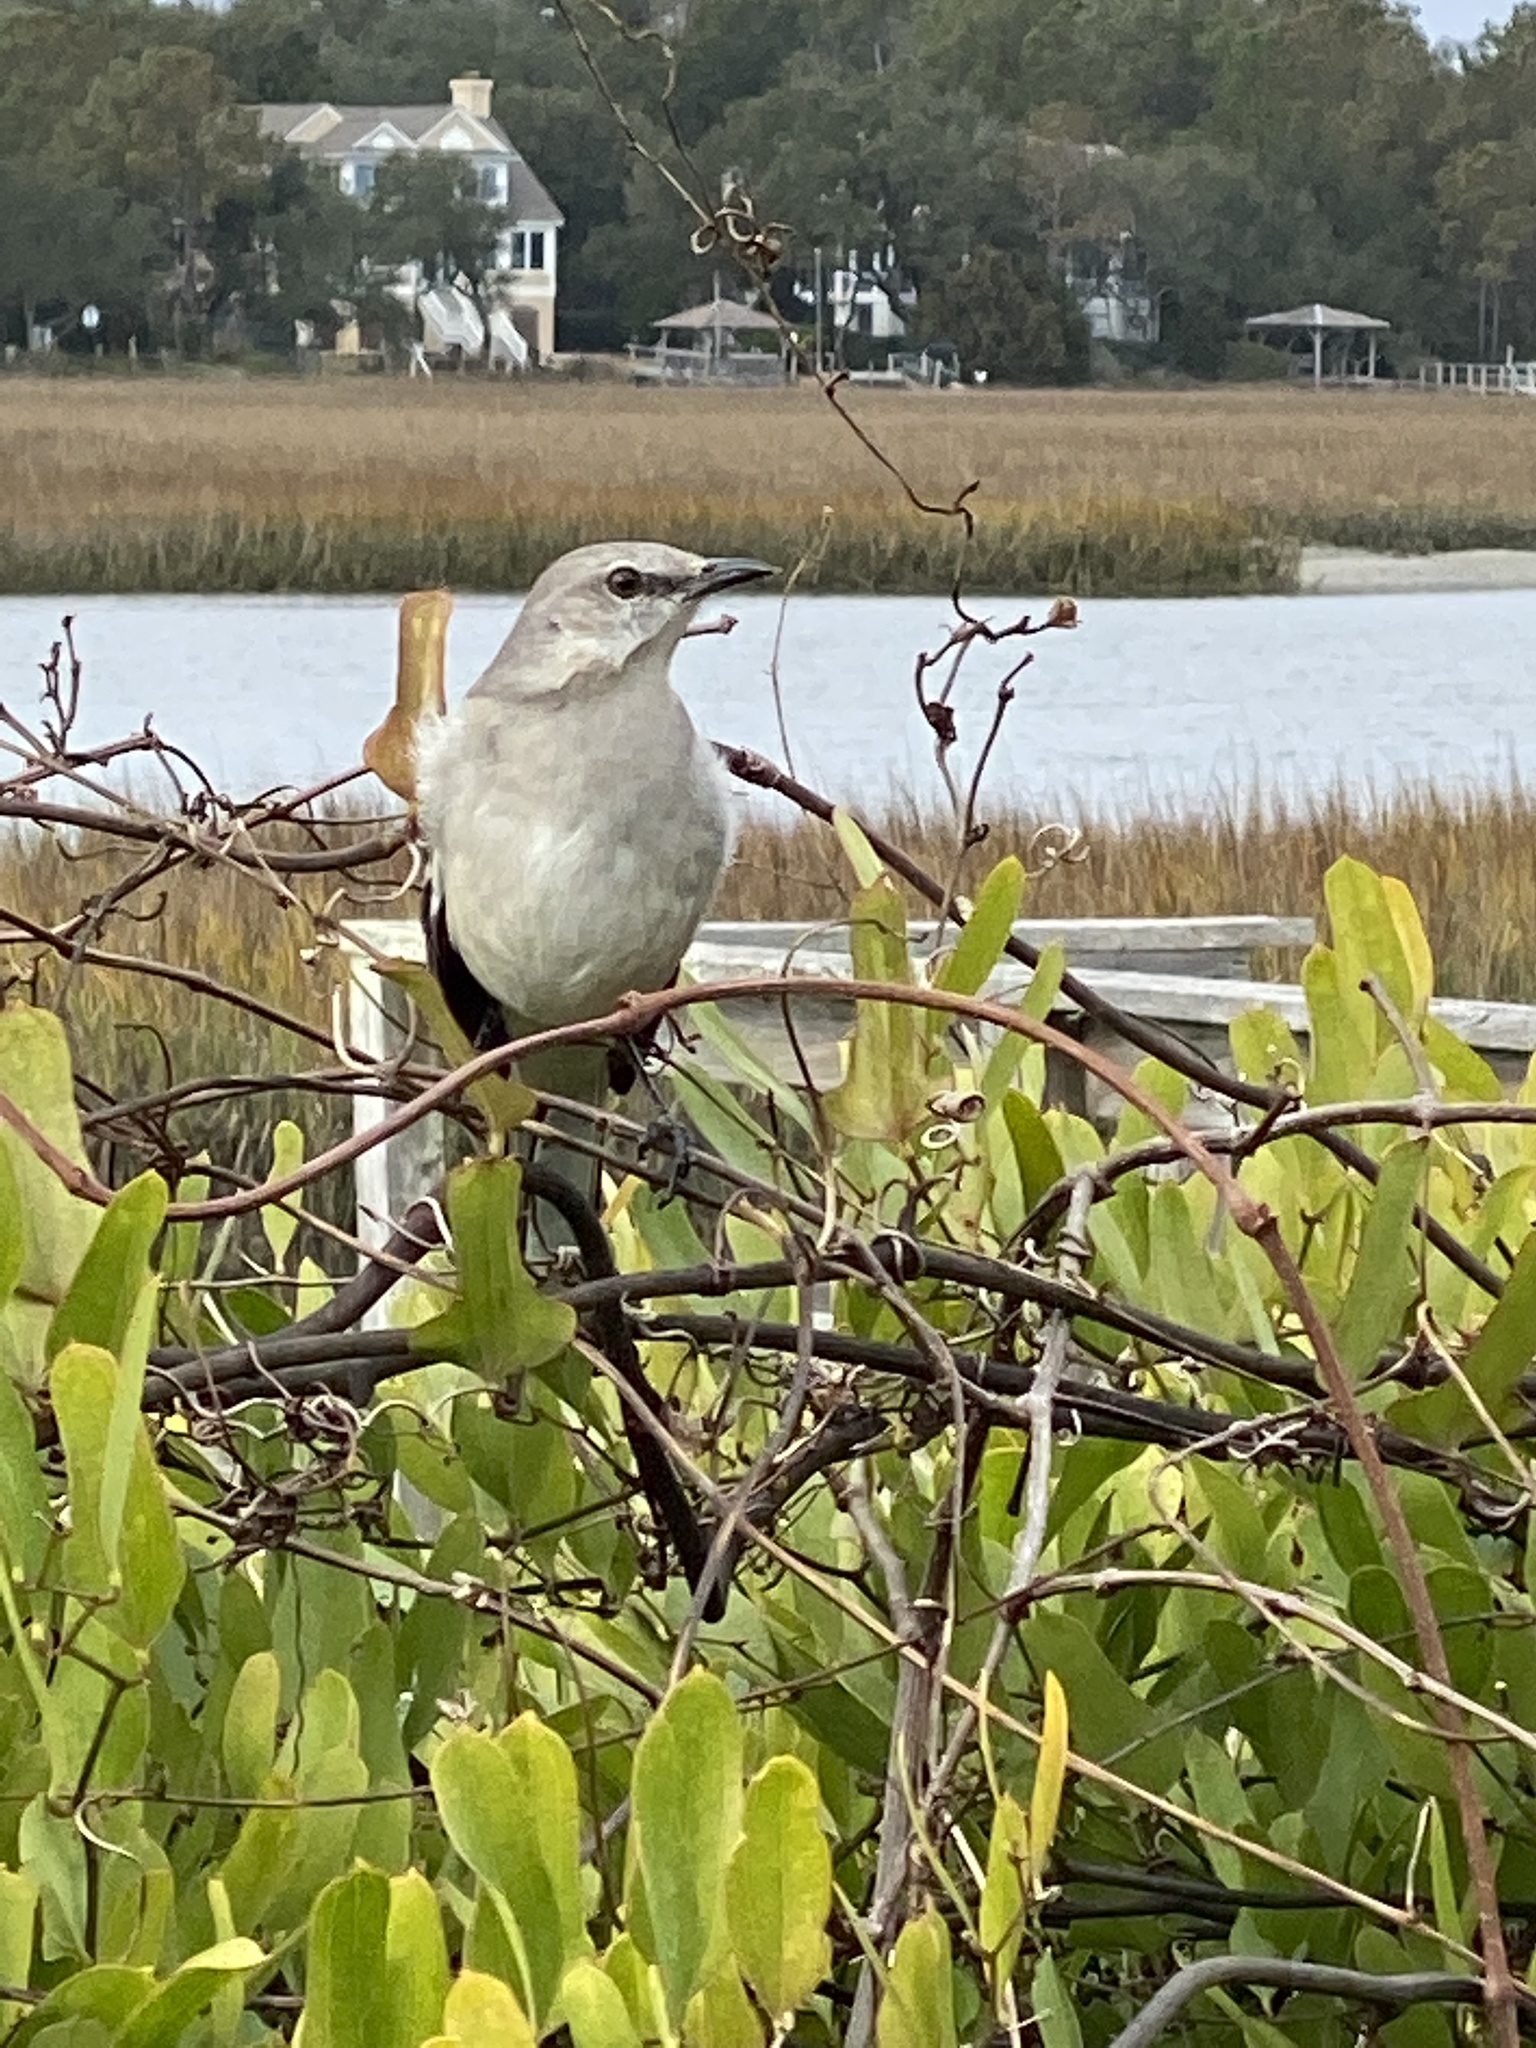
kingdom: Animalia
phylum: Chordata
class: Aves
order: Passeriformes
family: Mimidae
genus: Mimus
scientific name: Mimus polyglottos
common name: Northern mockingbird
